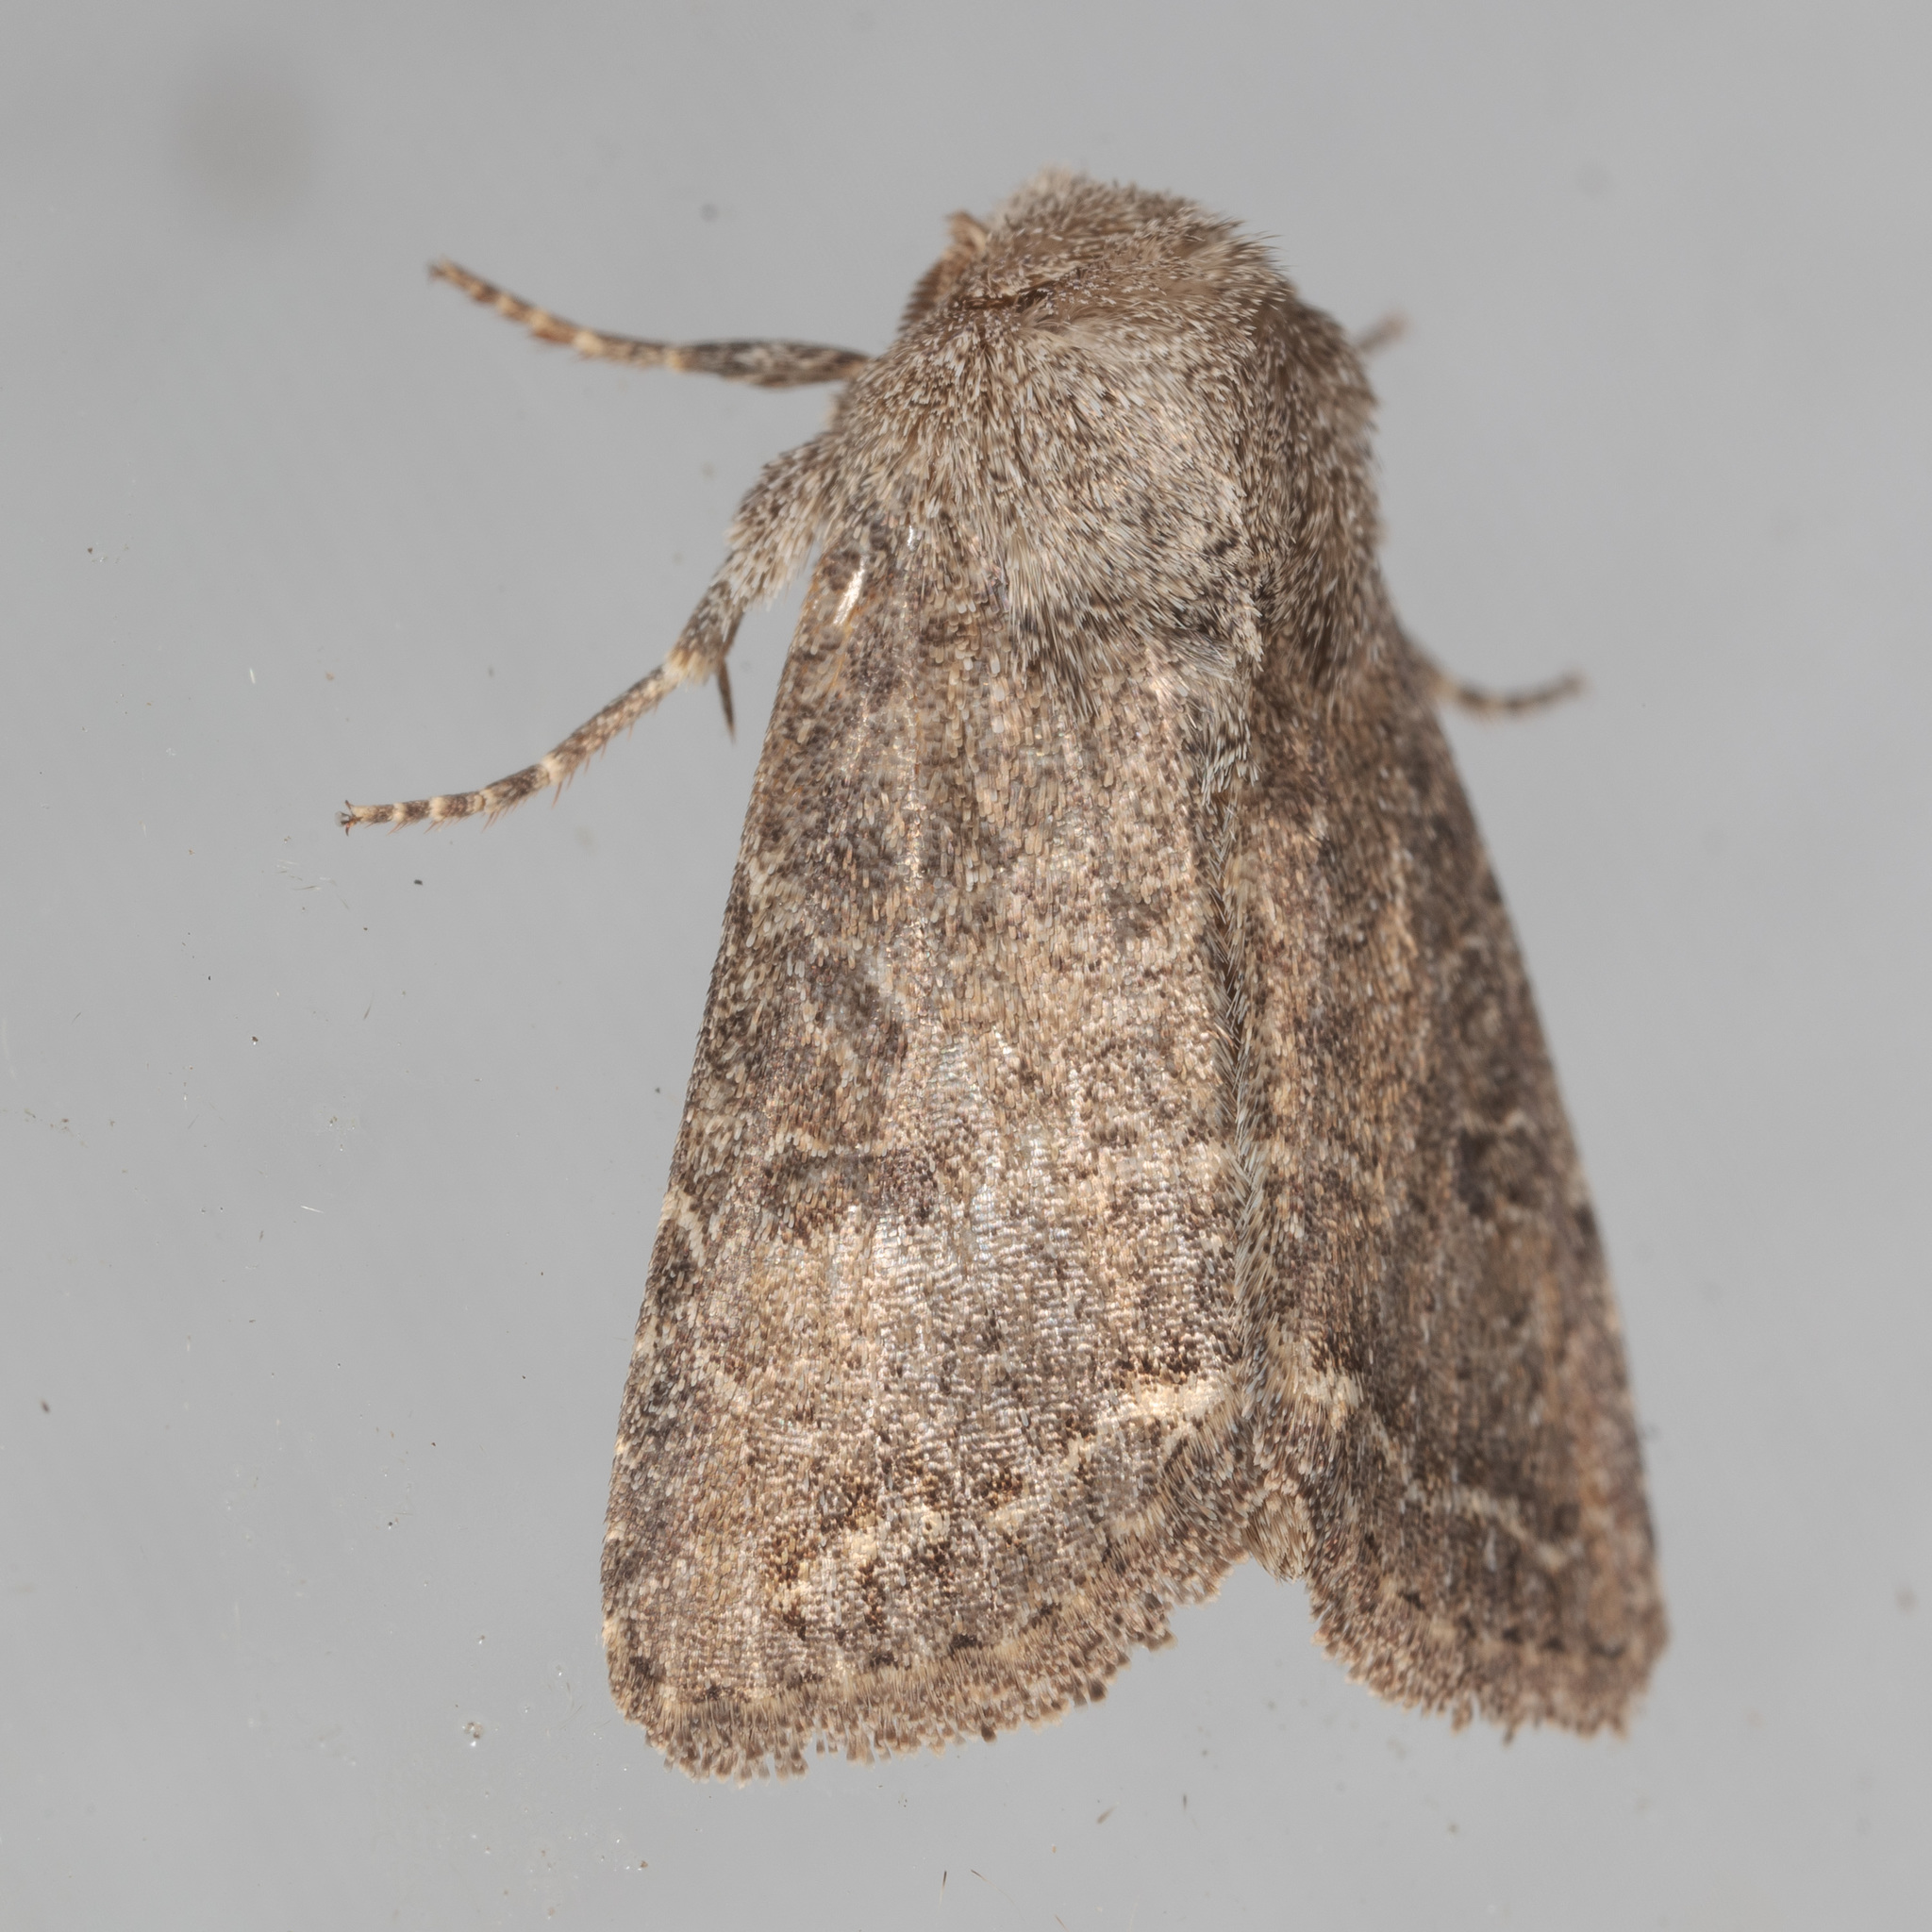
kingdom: Animalia
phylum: Arthropoda
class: Insecta
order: Lepidoptera
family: Noctuidae
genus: Trichopolia
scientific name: Trichopolia
